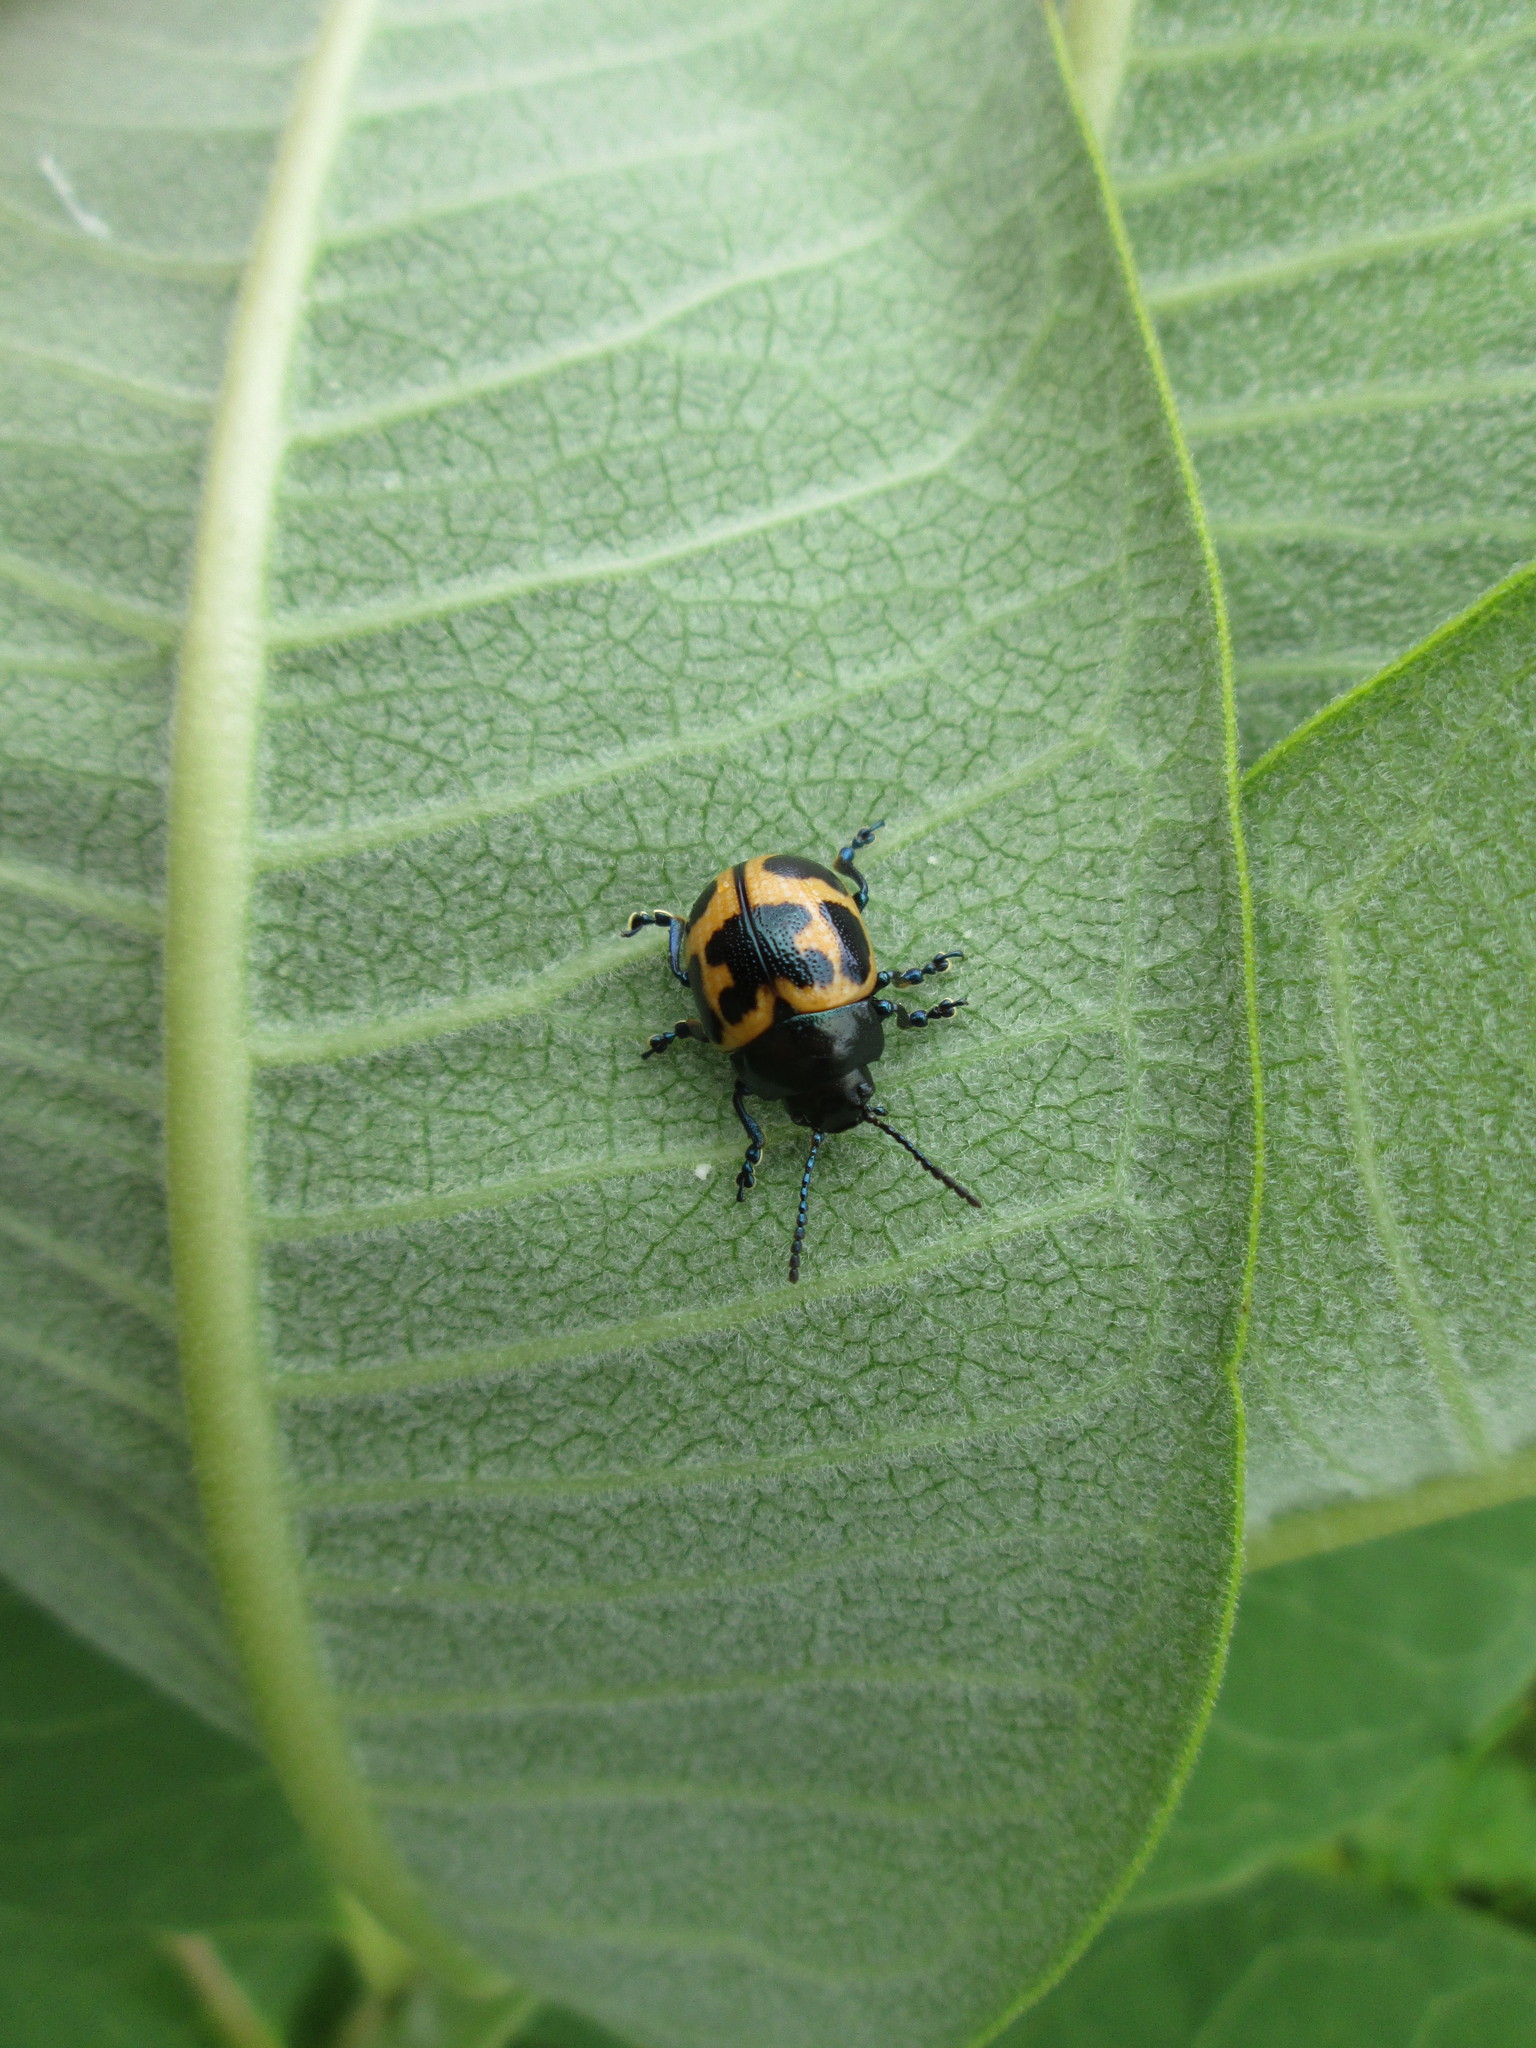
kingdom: Animalia
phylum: Arthropoda
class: Insecta
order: Coleoptera
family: Chrysomelidae
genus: Labidomera
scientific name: Labidomera clivicollis
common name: Swamp milkweed leaf beetle
